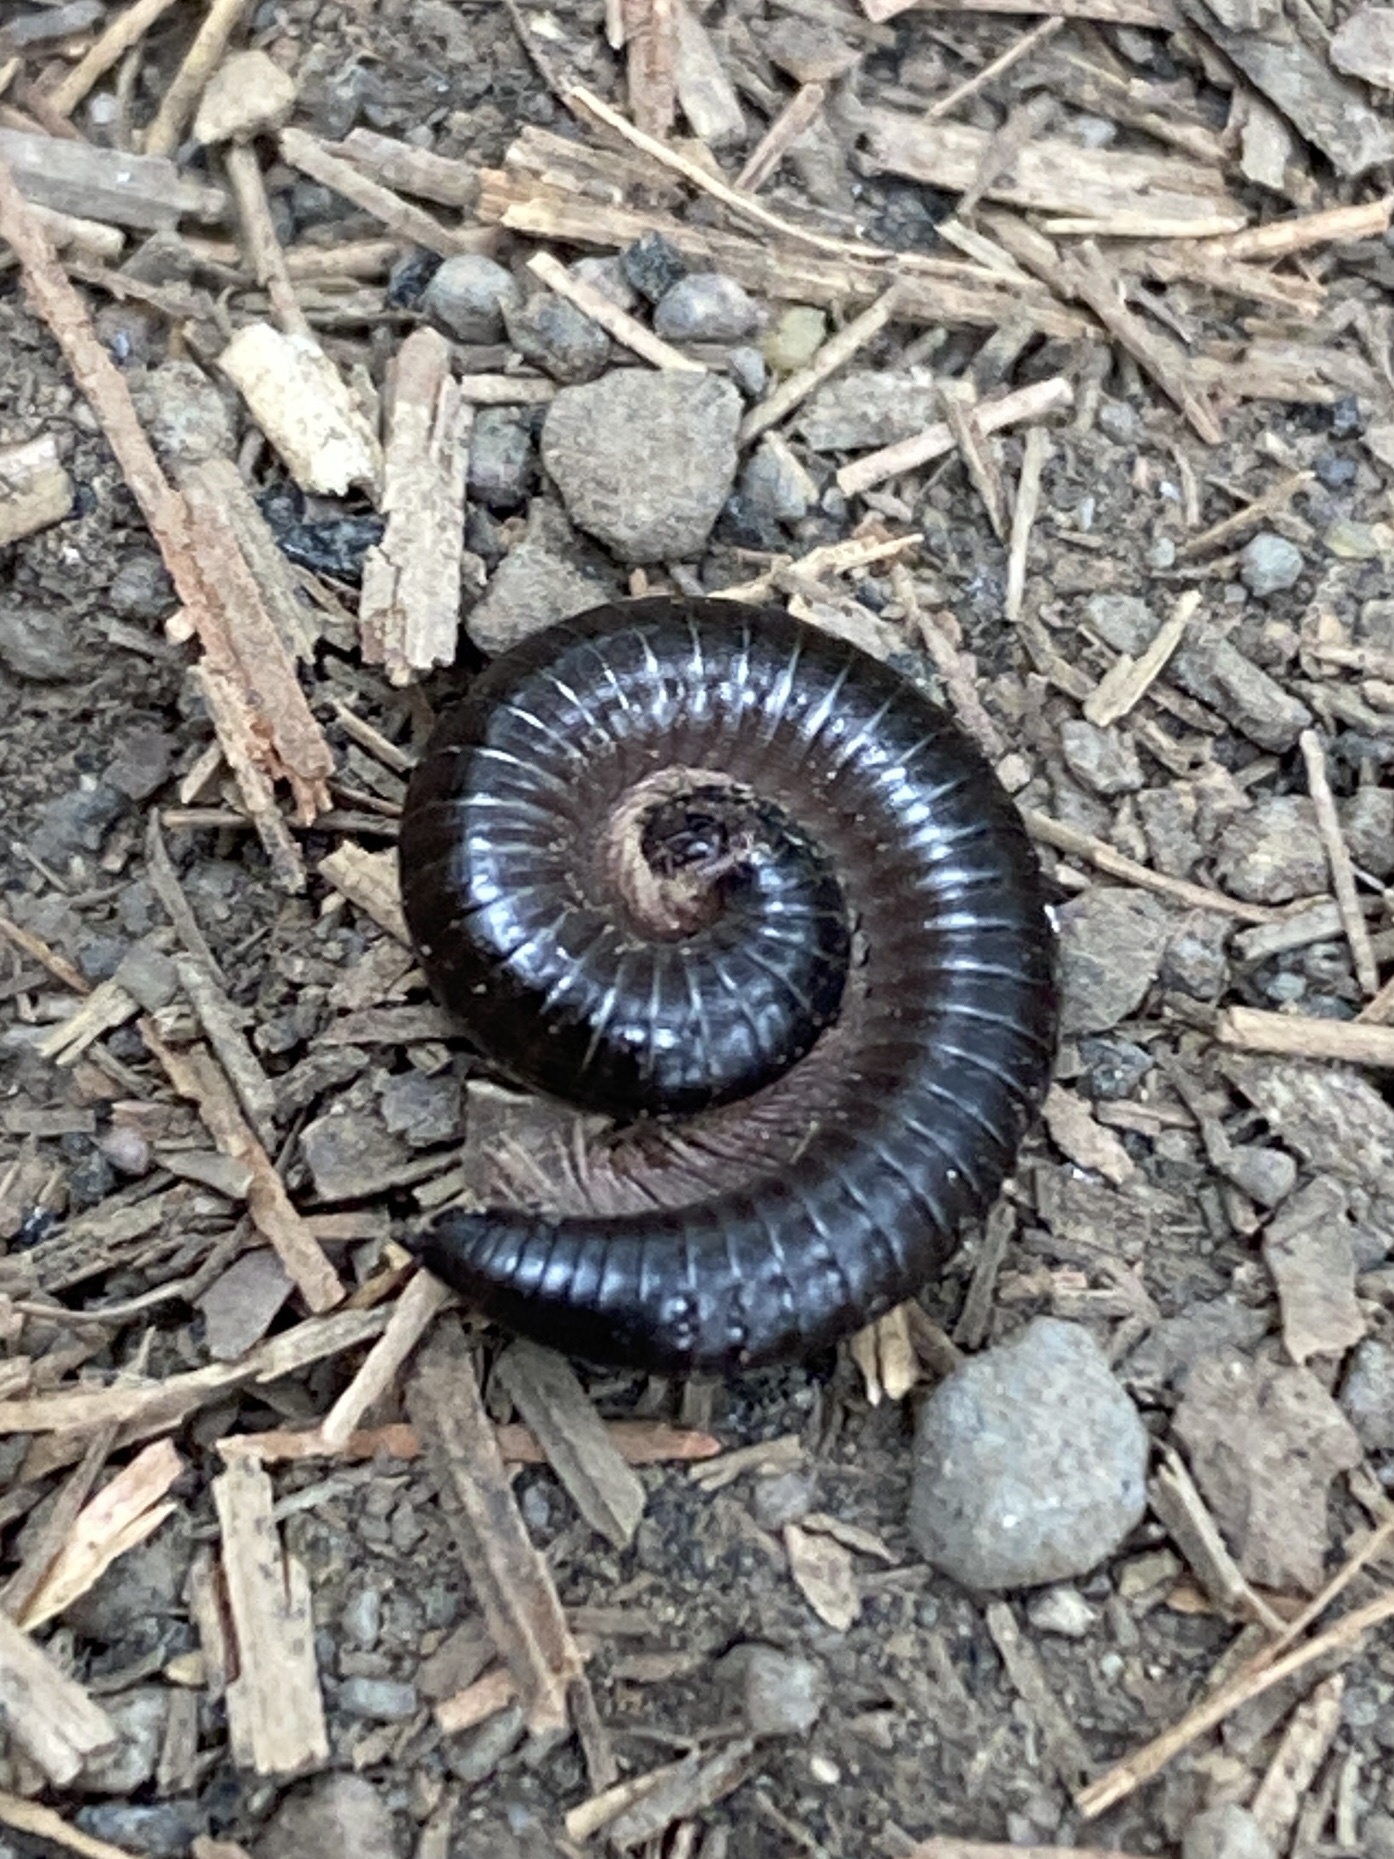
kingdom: Animalia
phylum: Arthropoda
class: Diplopoda
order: Julida
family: Julidae
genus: Ommatoiulus
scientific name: Ommatoiulus moreleti
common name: Portuguese millipede
